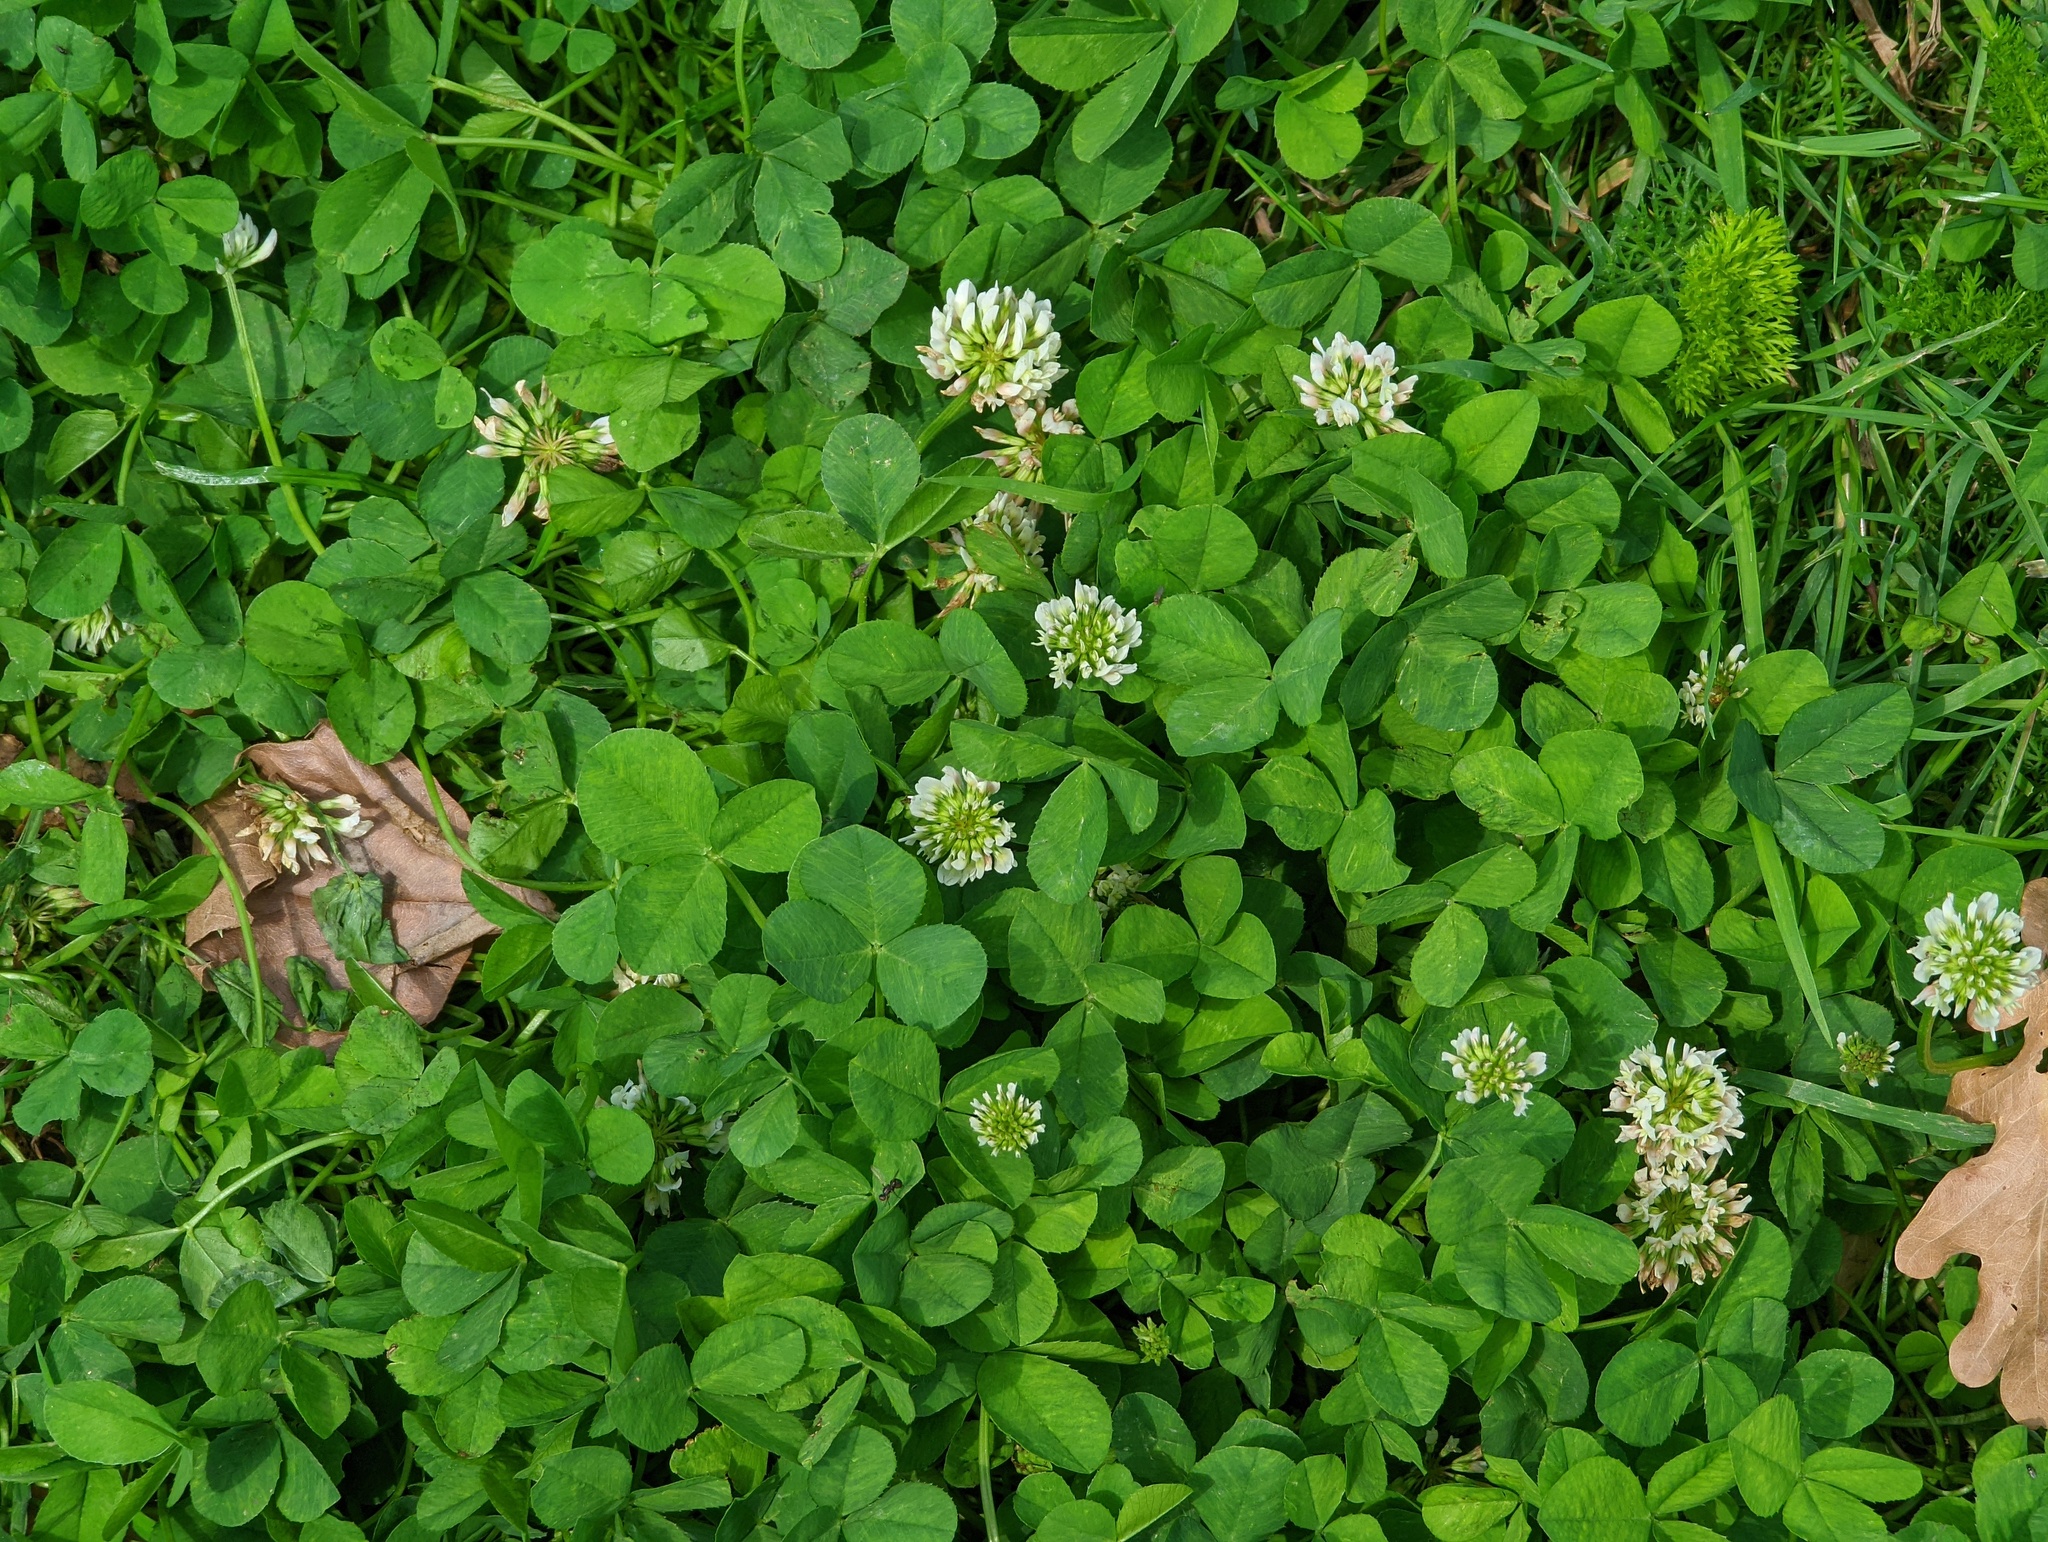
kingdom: Plantae
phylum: Tracheophyta
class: Magnoliopsida
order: Fabales
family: Fabaceae
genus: Trifolium
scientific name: Trifolium repens
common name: White clover
